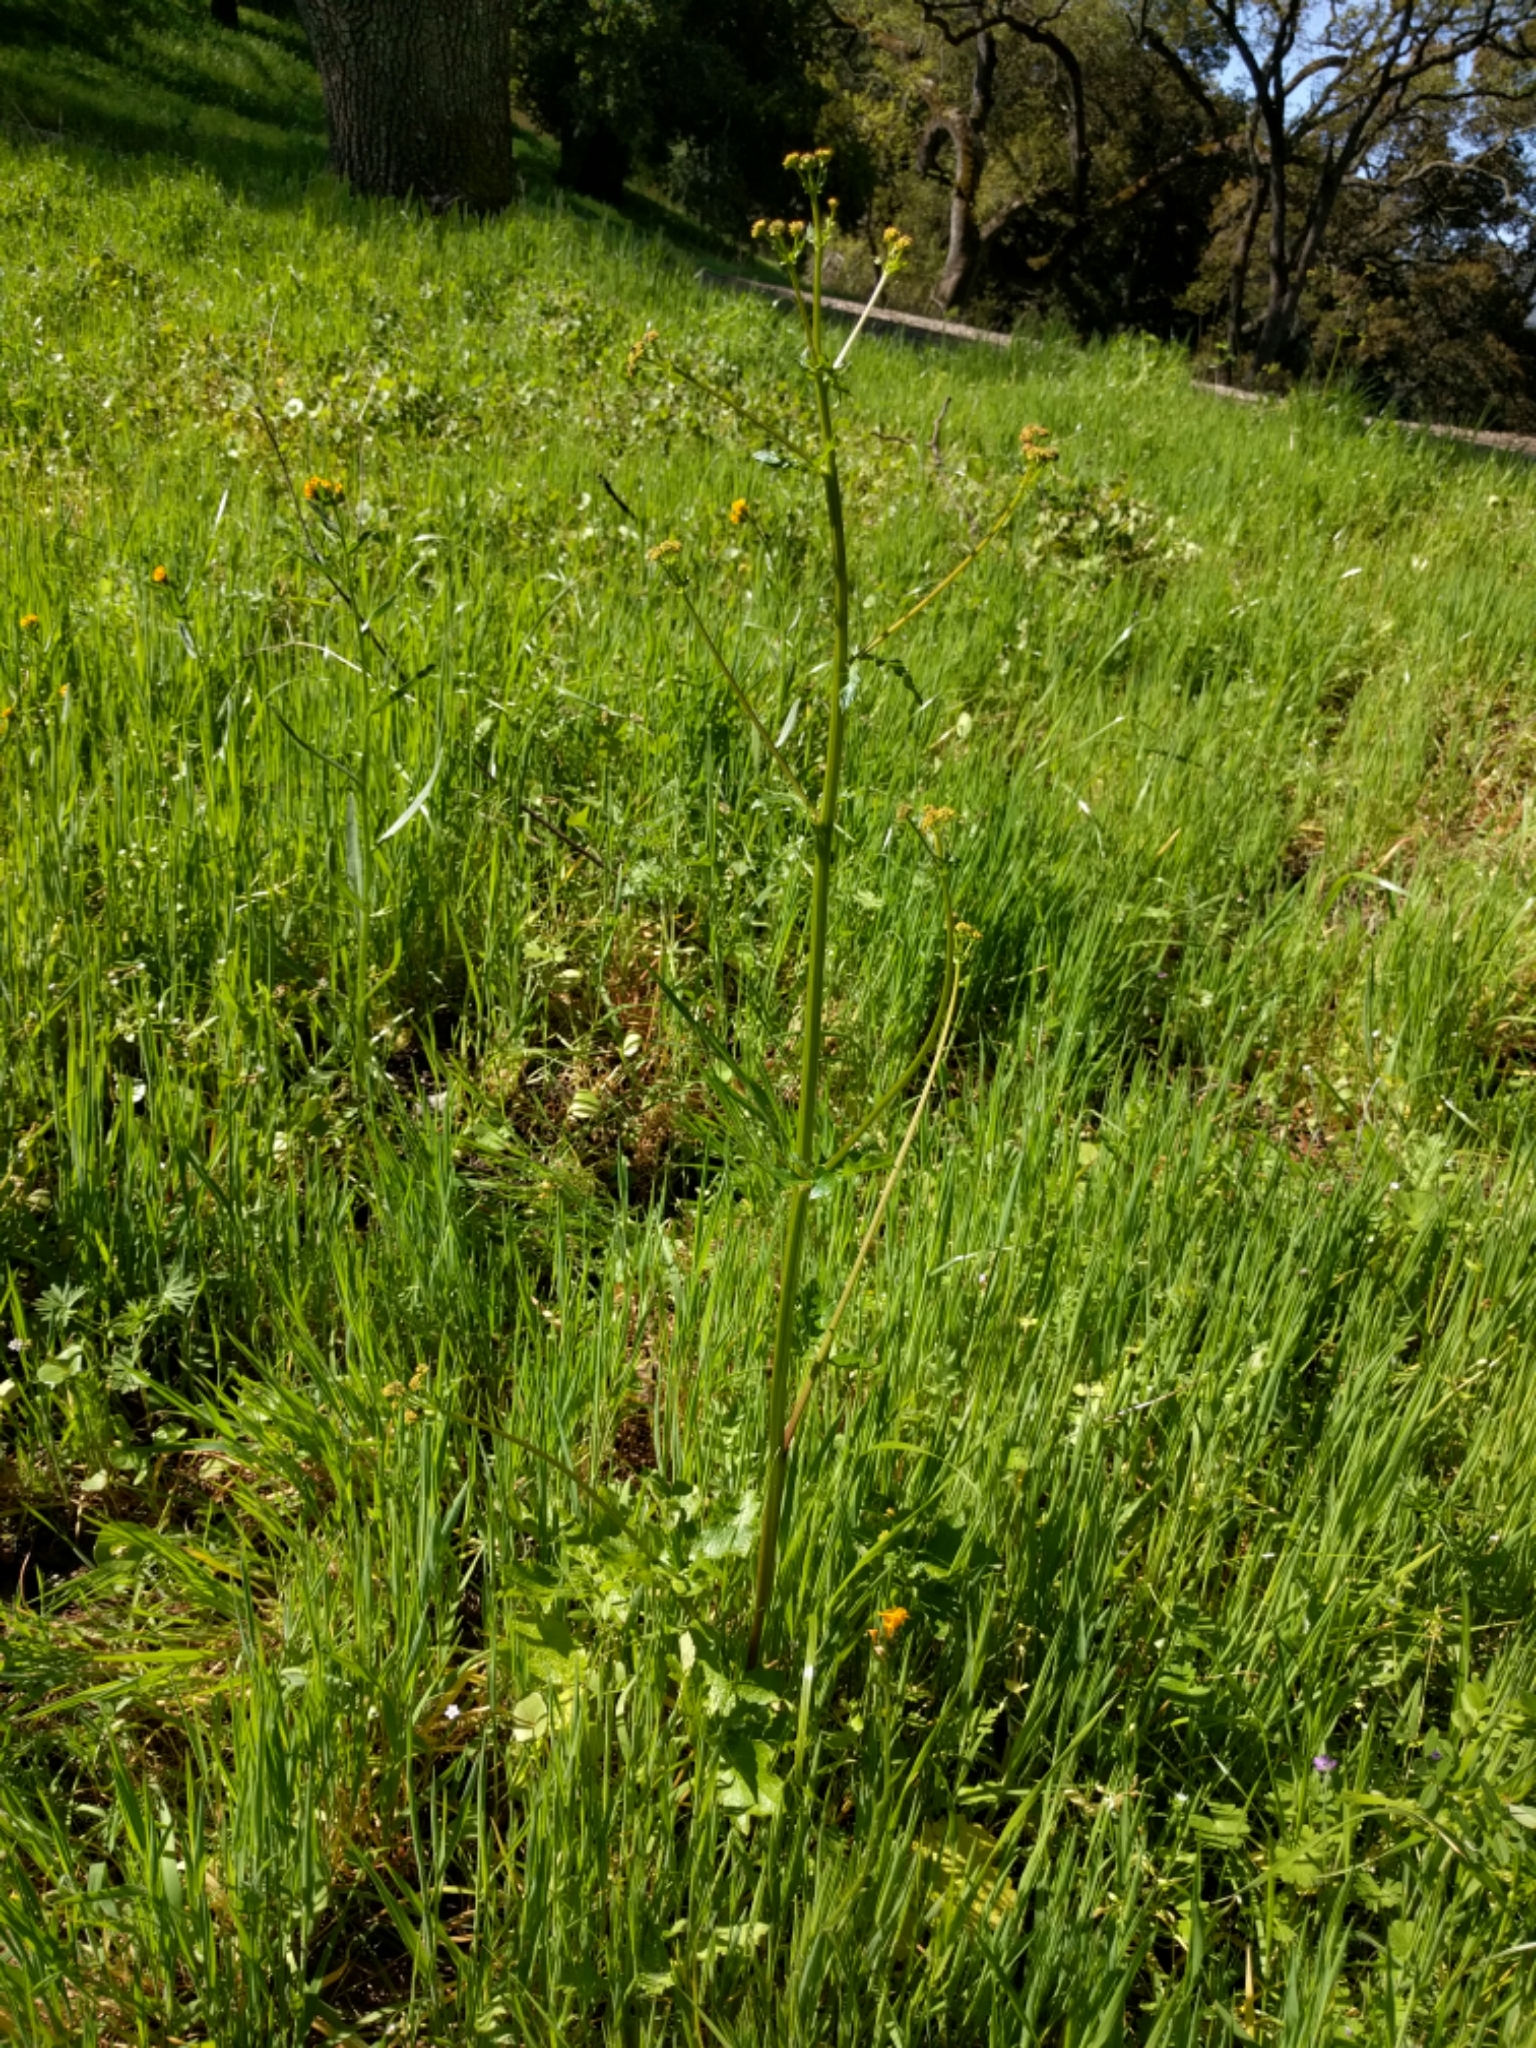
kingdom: Plantae
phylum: Tracheophyta
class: Magnoliopsida
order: Apiales
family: Apiaceae
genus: Sanicula
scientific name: Sanicula crassicaulis
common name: Western snakeroot
